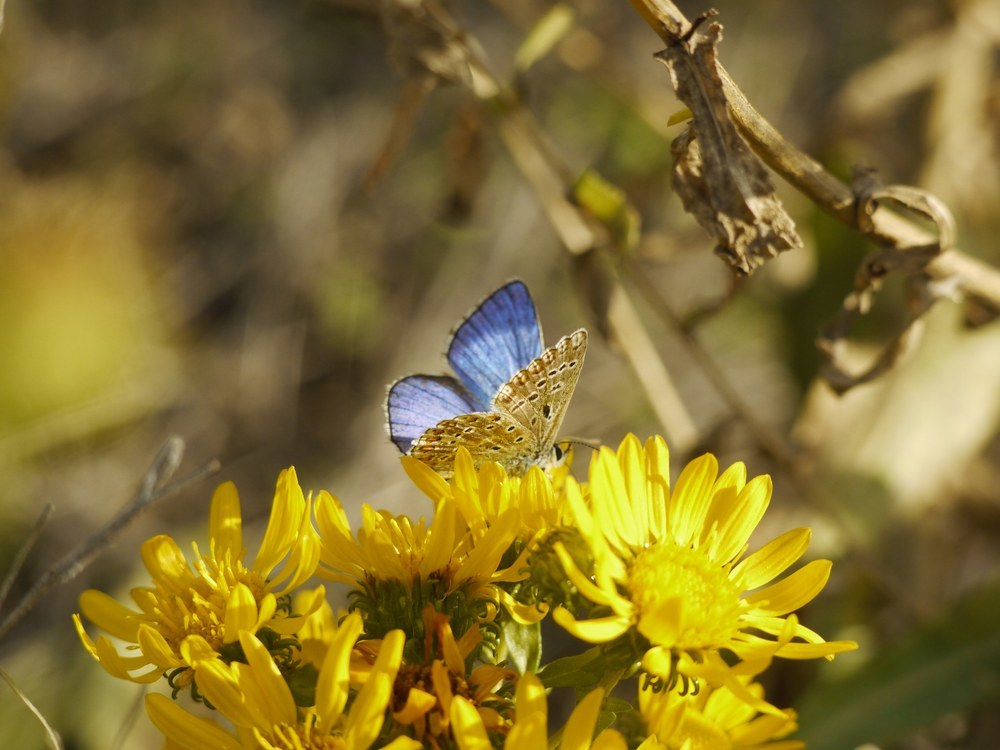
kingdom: Animalia
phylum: Arthropoda
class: Insecta
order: Lepidoptera
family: Lycaenidae
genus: Lysandra
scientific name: Lysandra bellargus
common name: Adonis blue
